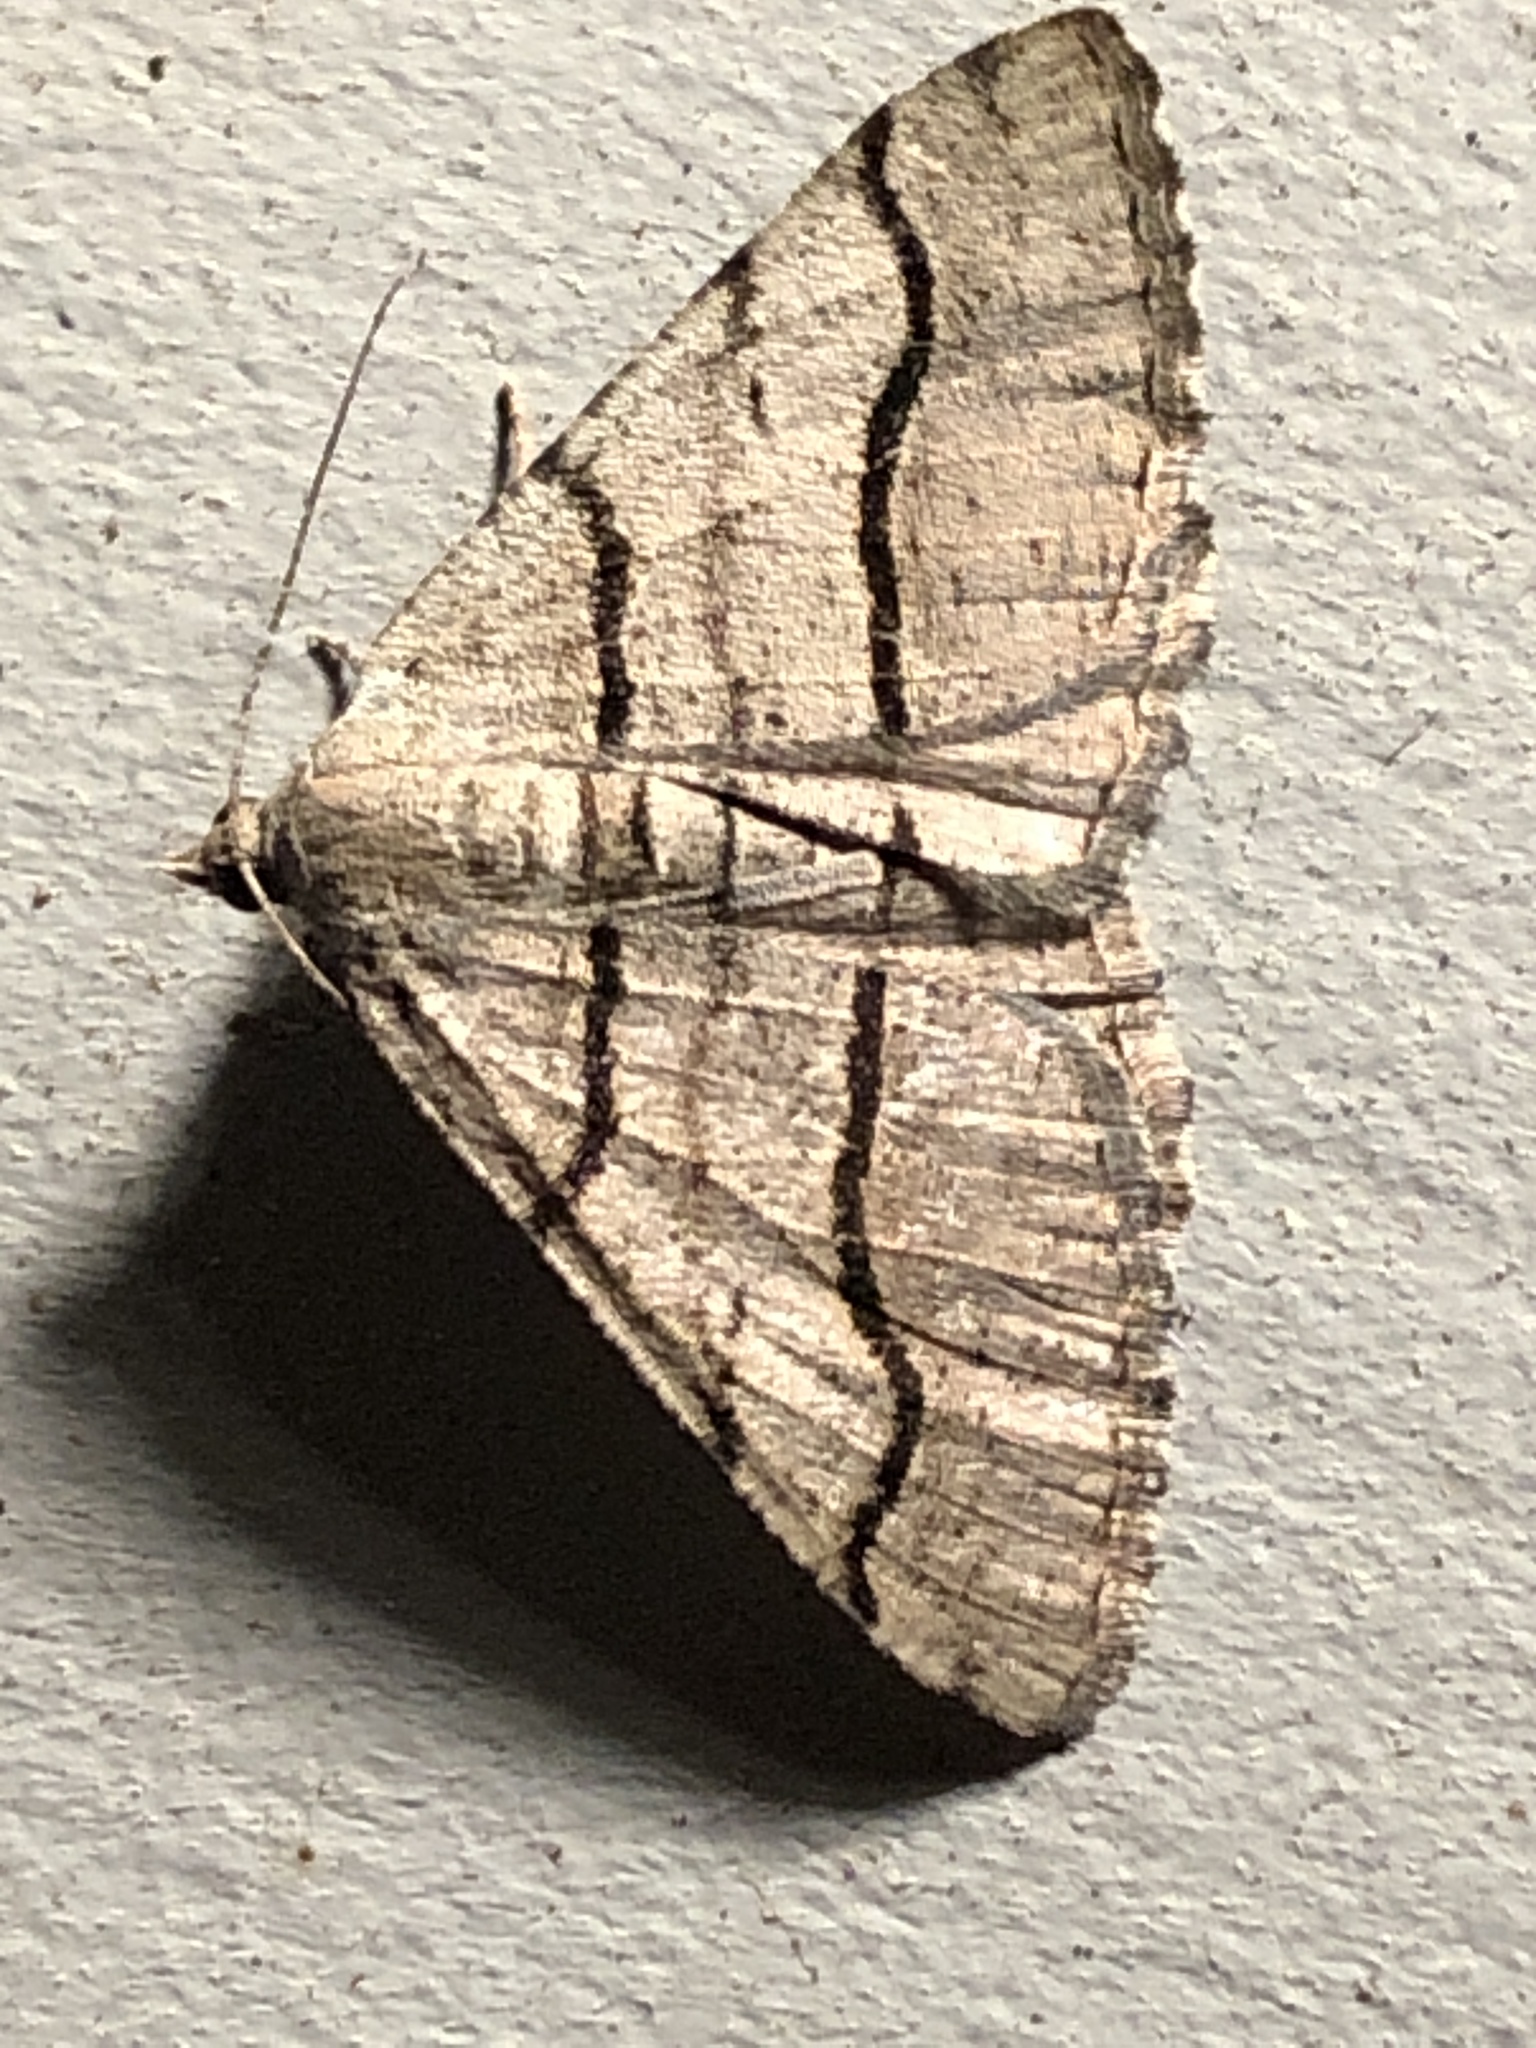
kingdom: Animalia
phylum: Arthropoda
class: Insecta
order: Lepidoptera
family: Geometridae
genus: Digrammia
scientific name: Digrammia continuata
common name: Curve-lined angle
